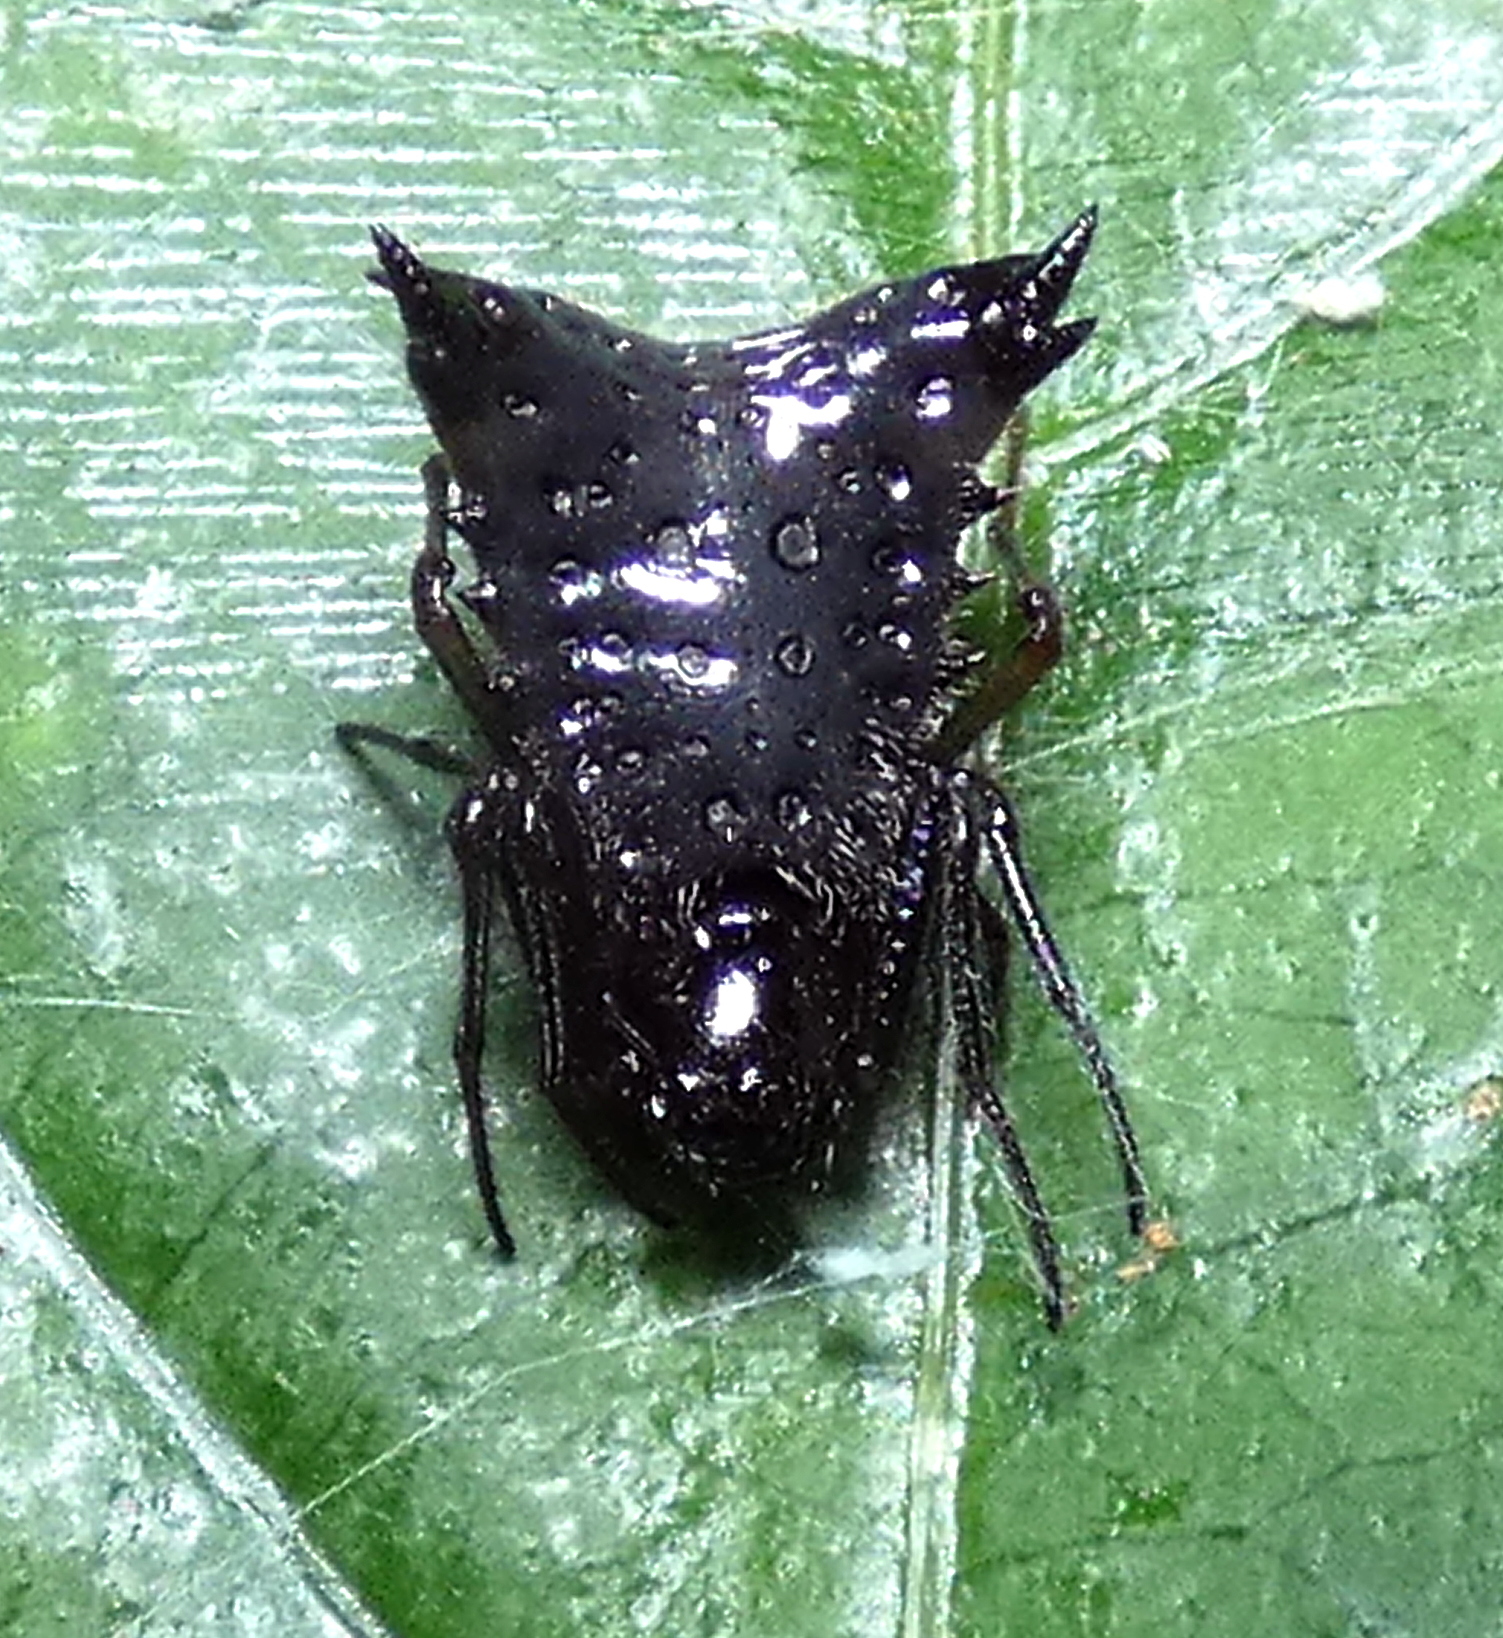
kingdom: Animalia
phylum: Arthropoda
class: Arachnida
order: Araneae
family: Araneidae
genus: Micrathena
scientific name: Micrathena triangularis
